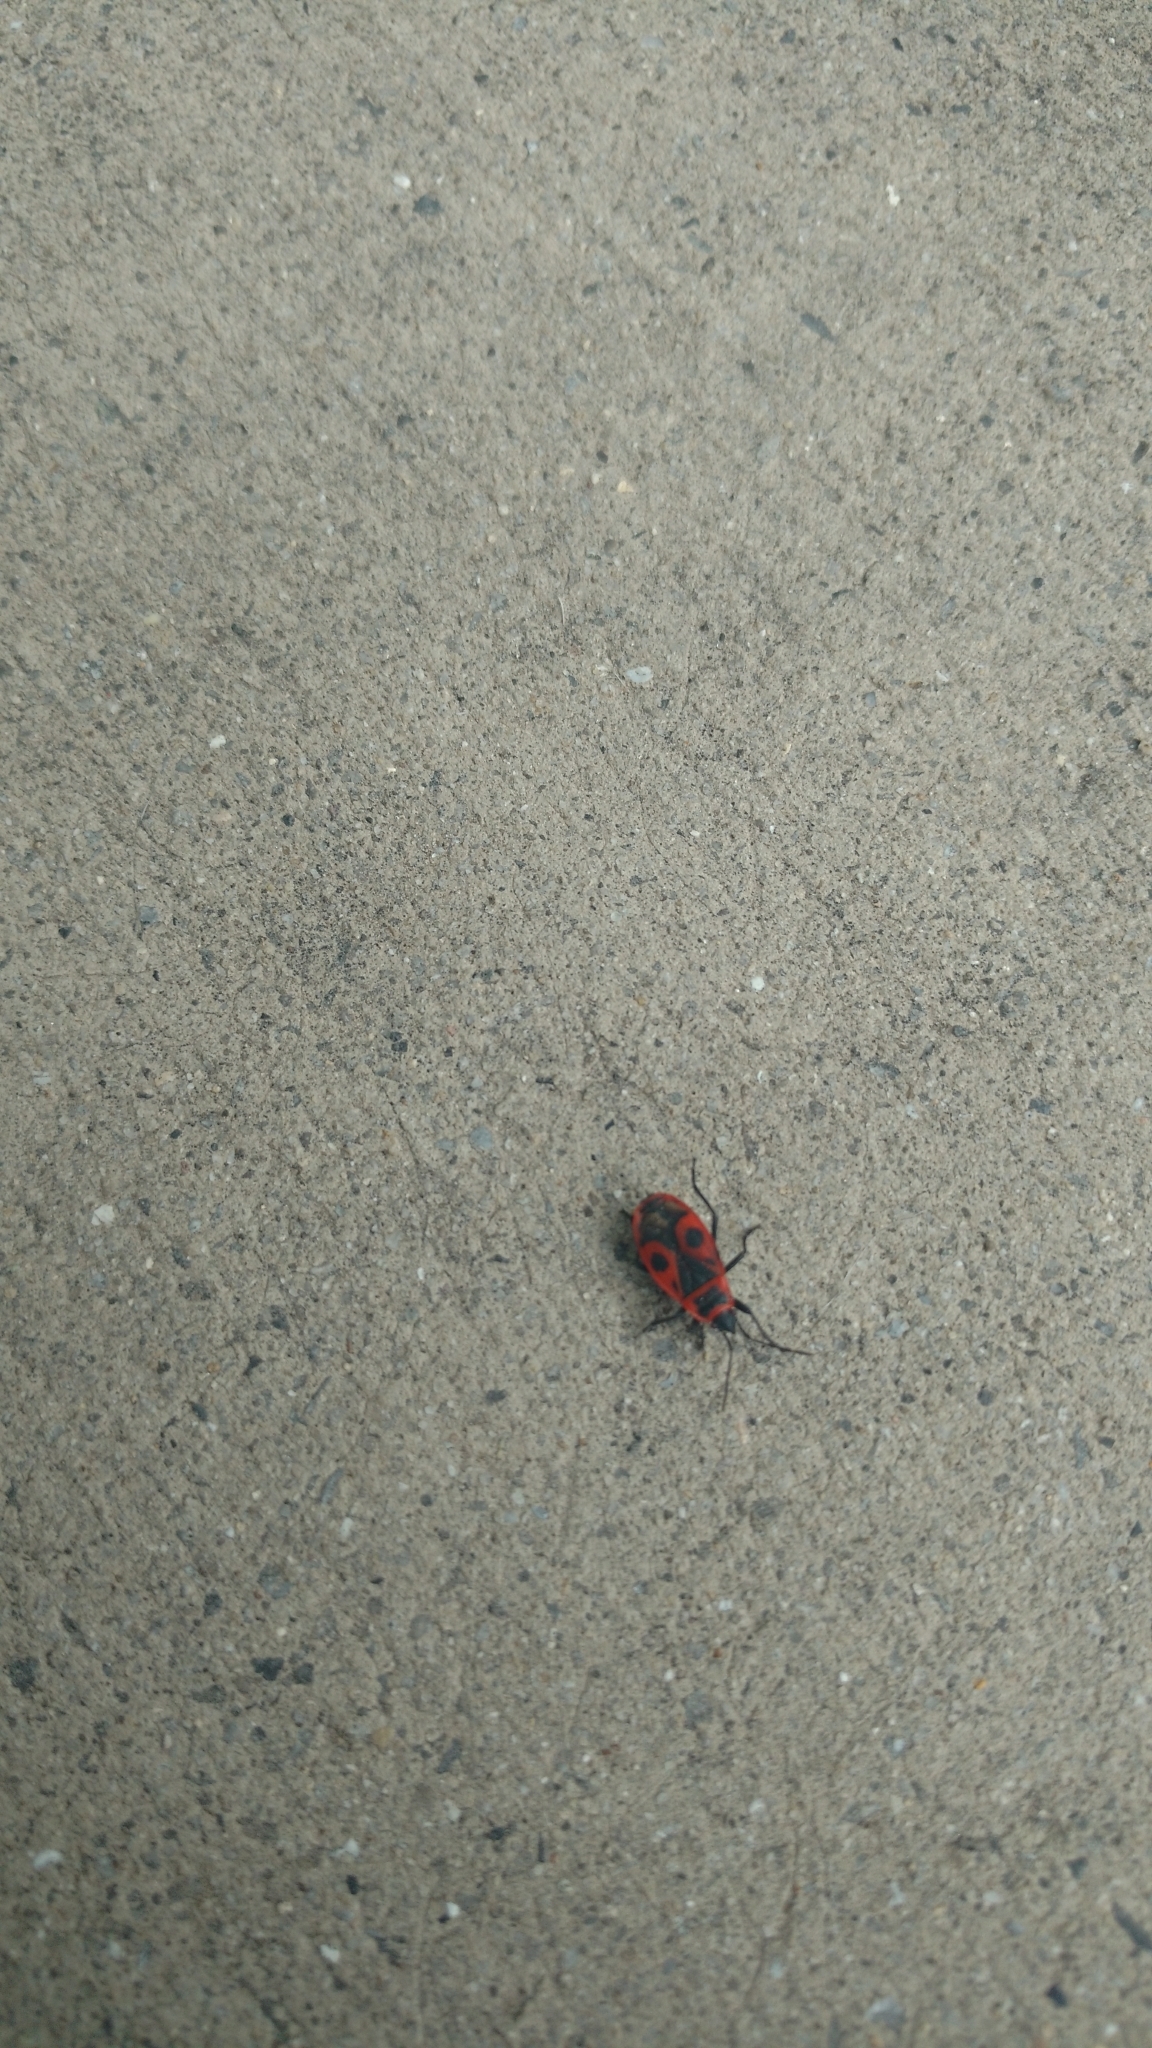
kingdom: Animalia
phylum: Arthropoda
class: Insecta
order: Hemiptera
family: Pyrrhocoridae
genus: Pyrrhocoris
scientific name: Pyrrhocoris apterus
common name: Firebug
